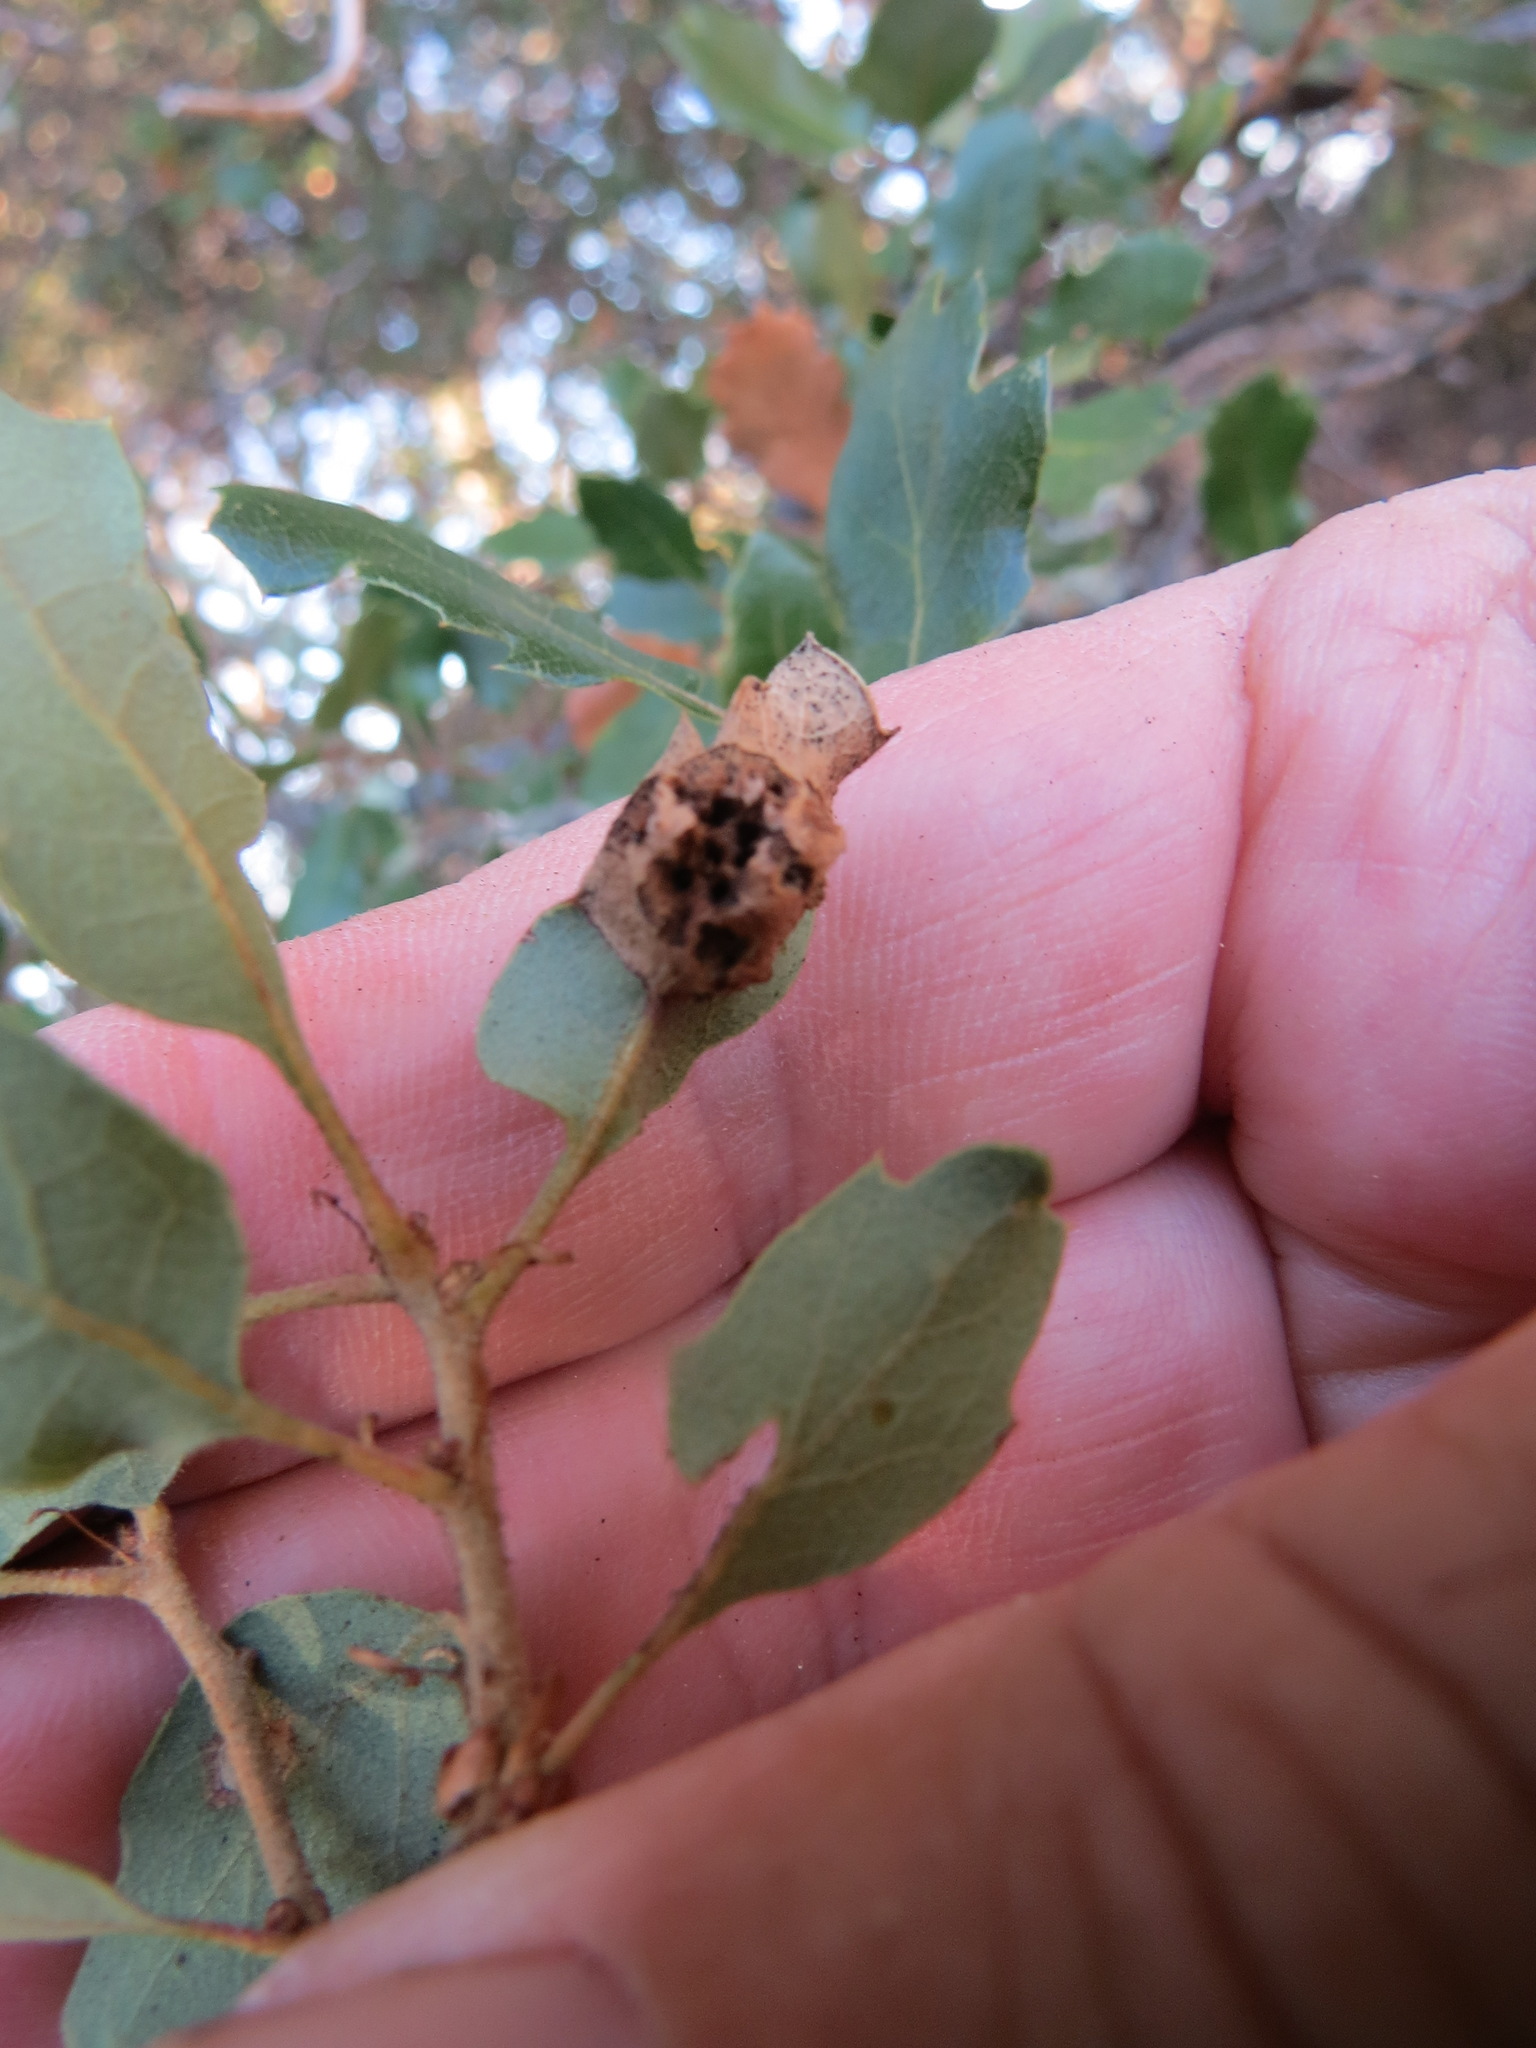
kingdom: Animalia
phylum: Arthropoda
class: Insecta
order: Hymenoptera
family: Cynipidae
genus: Neuroterus
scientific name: Neuroterus
